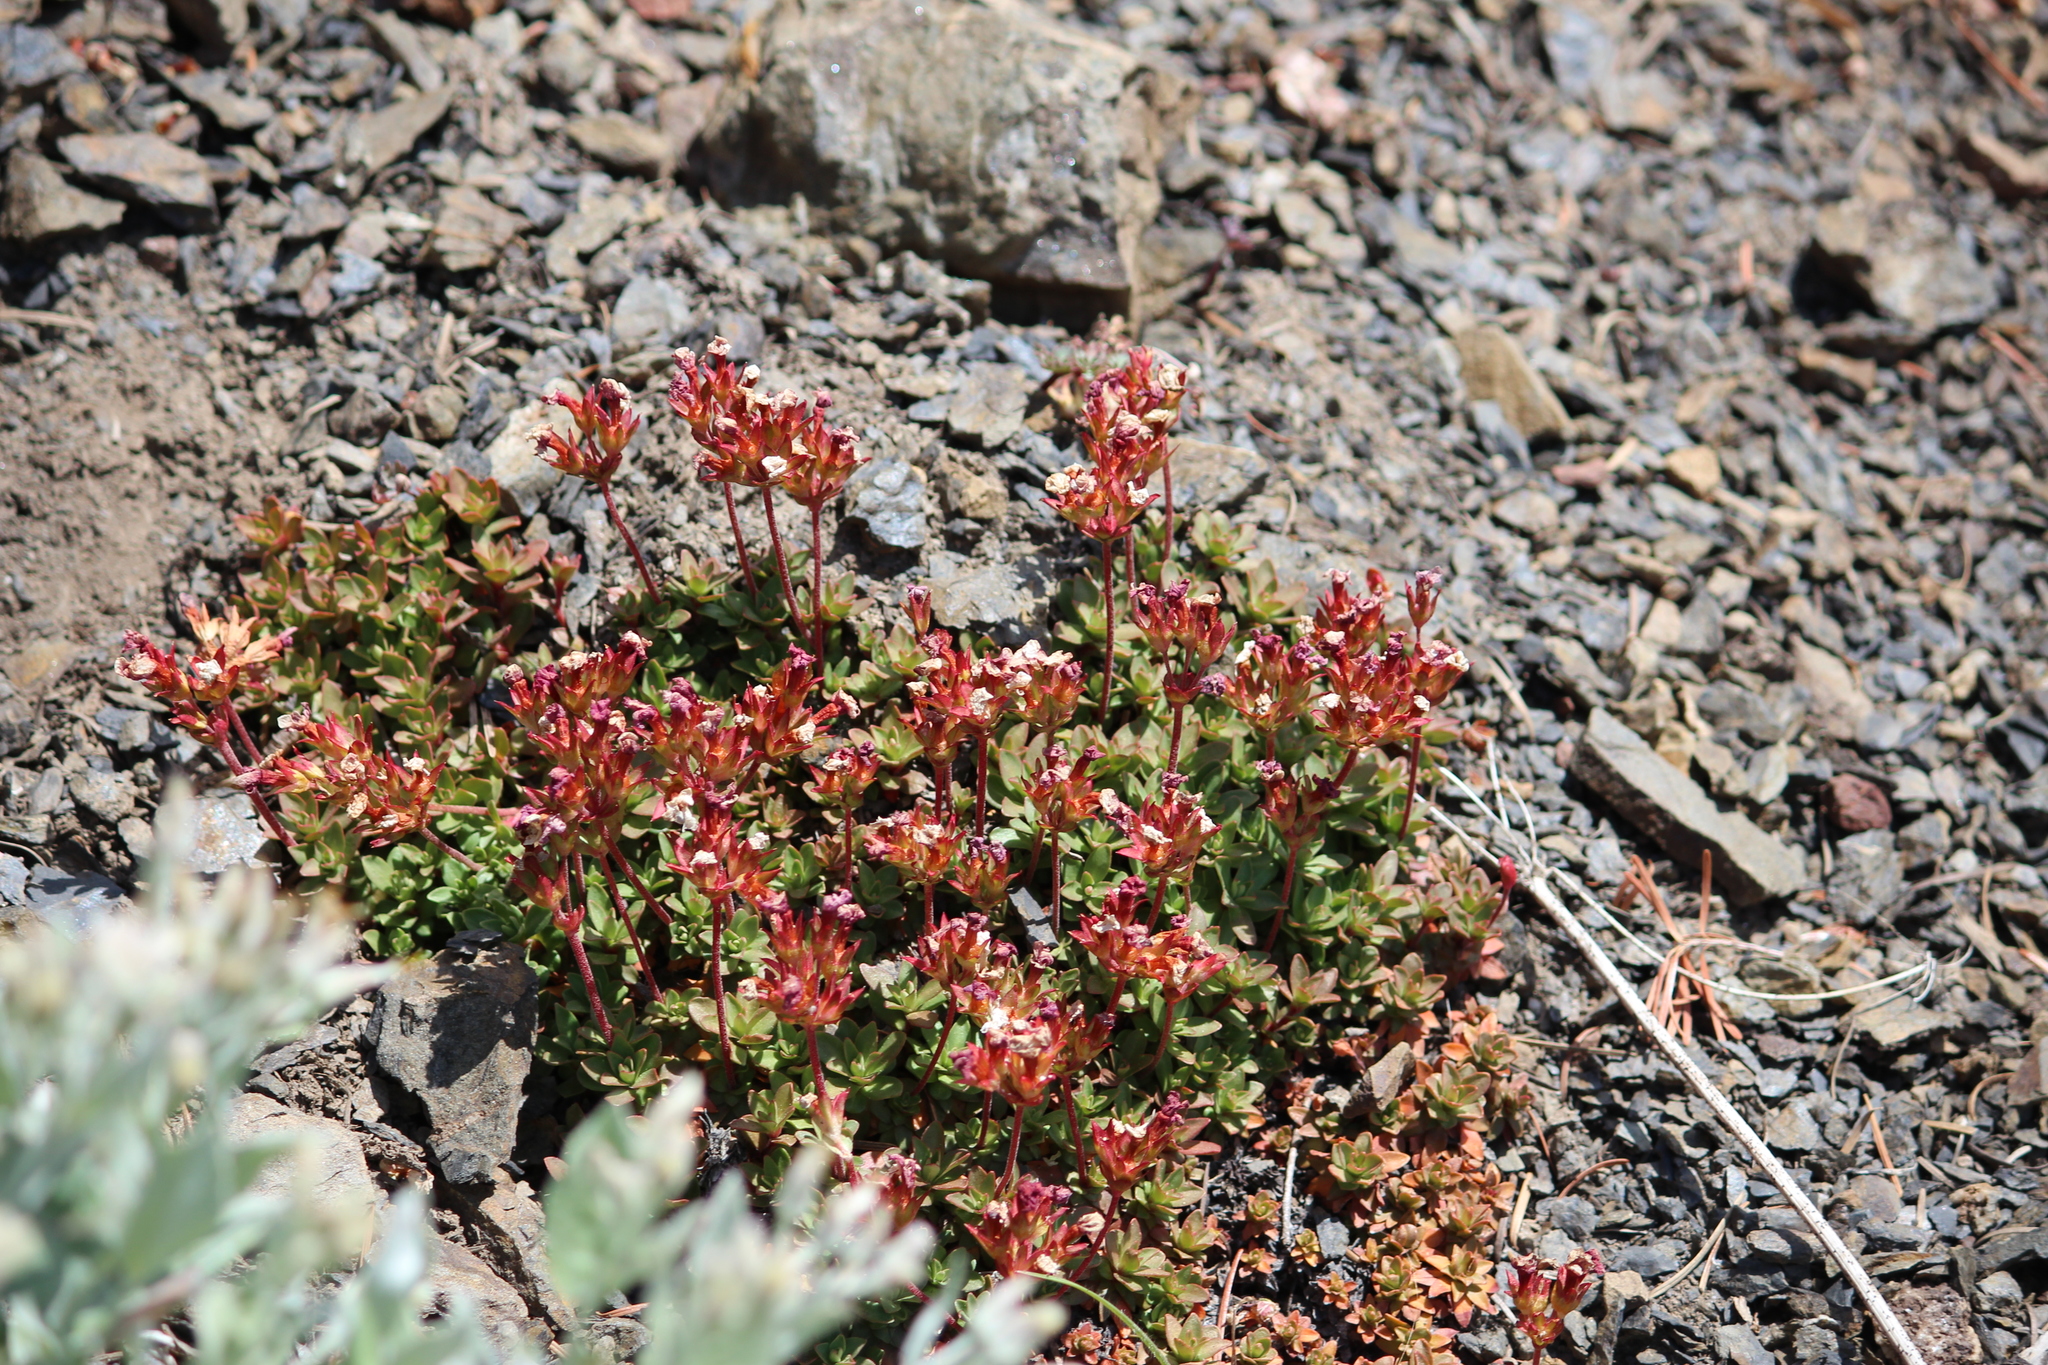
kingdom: Plantae
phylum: Tracheophyta
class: Magnoliopsida
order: Ericales
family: Primulaceae
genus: Androsace
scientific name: Androsace laevigata
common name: Cliff dwarf-primrose
